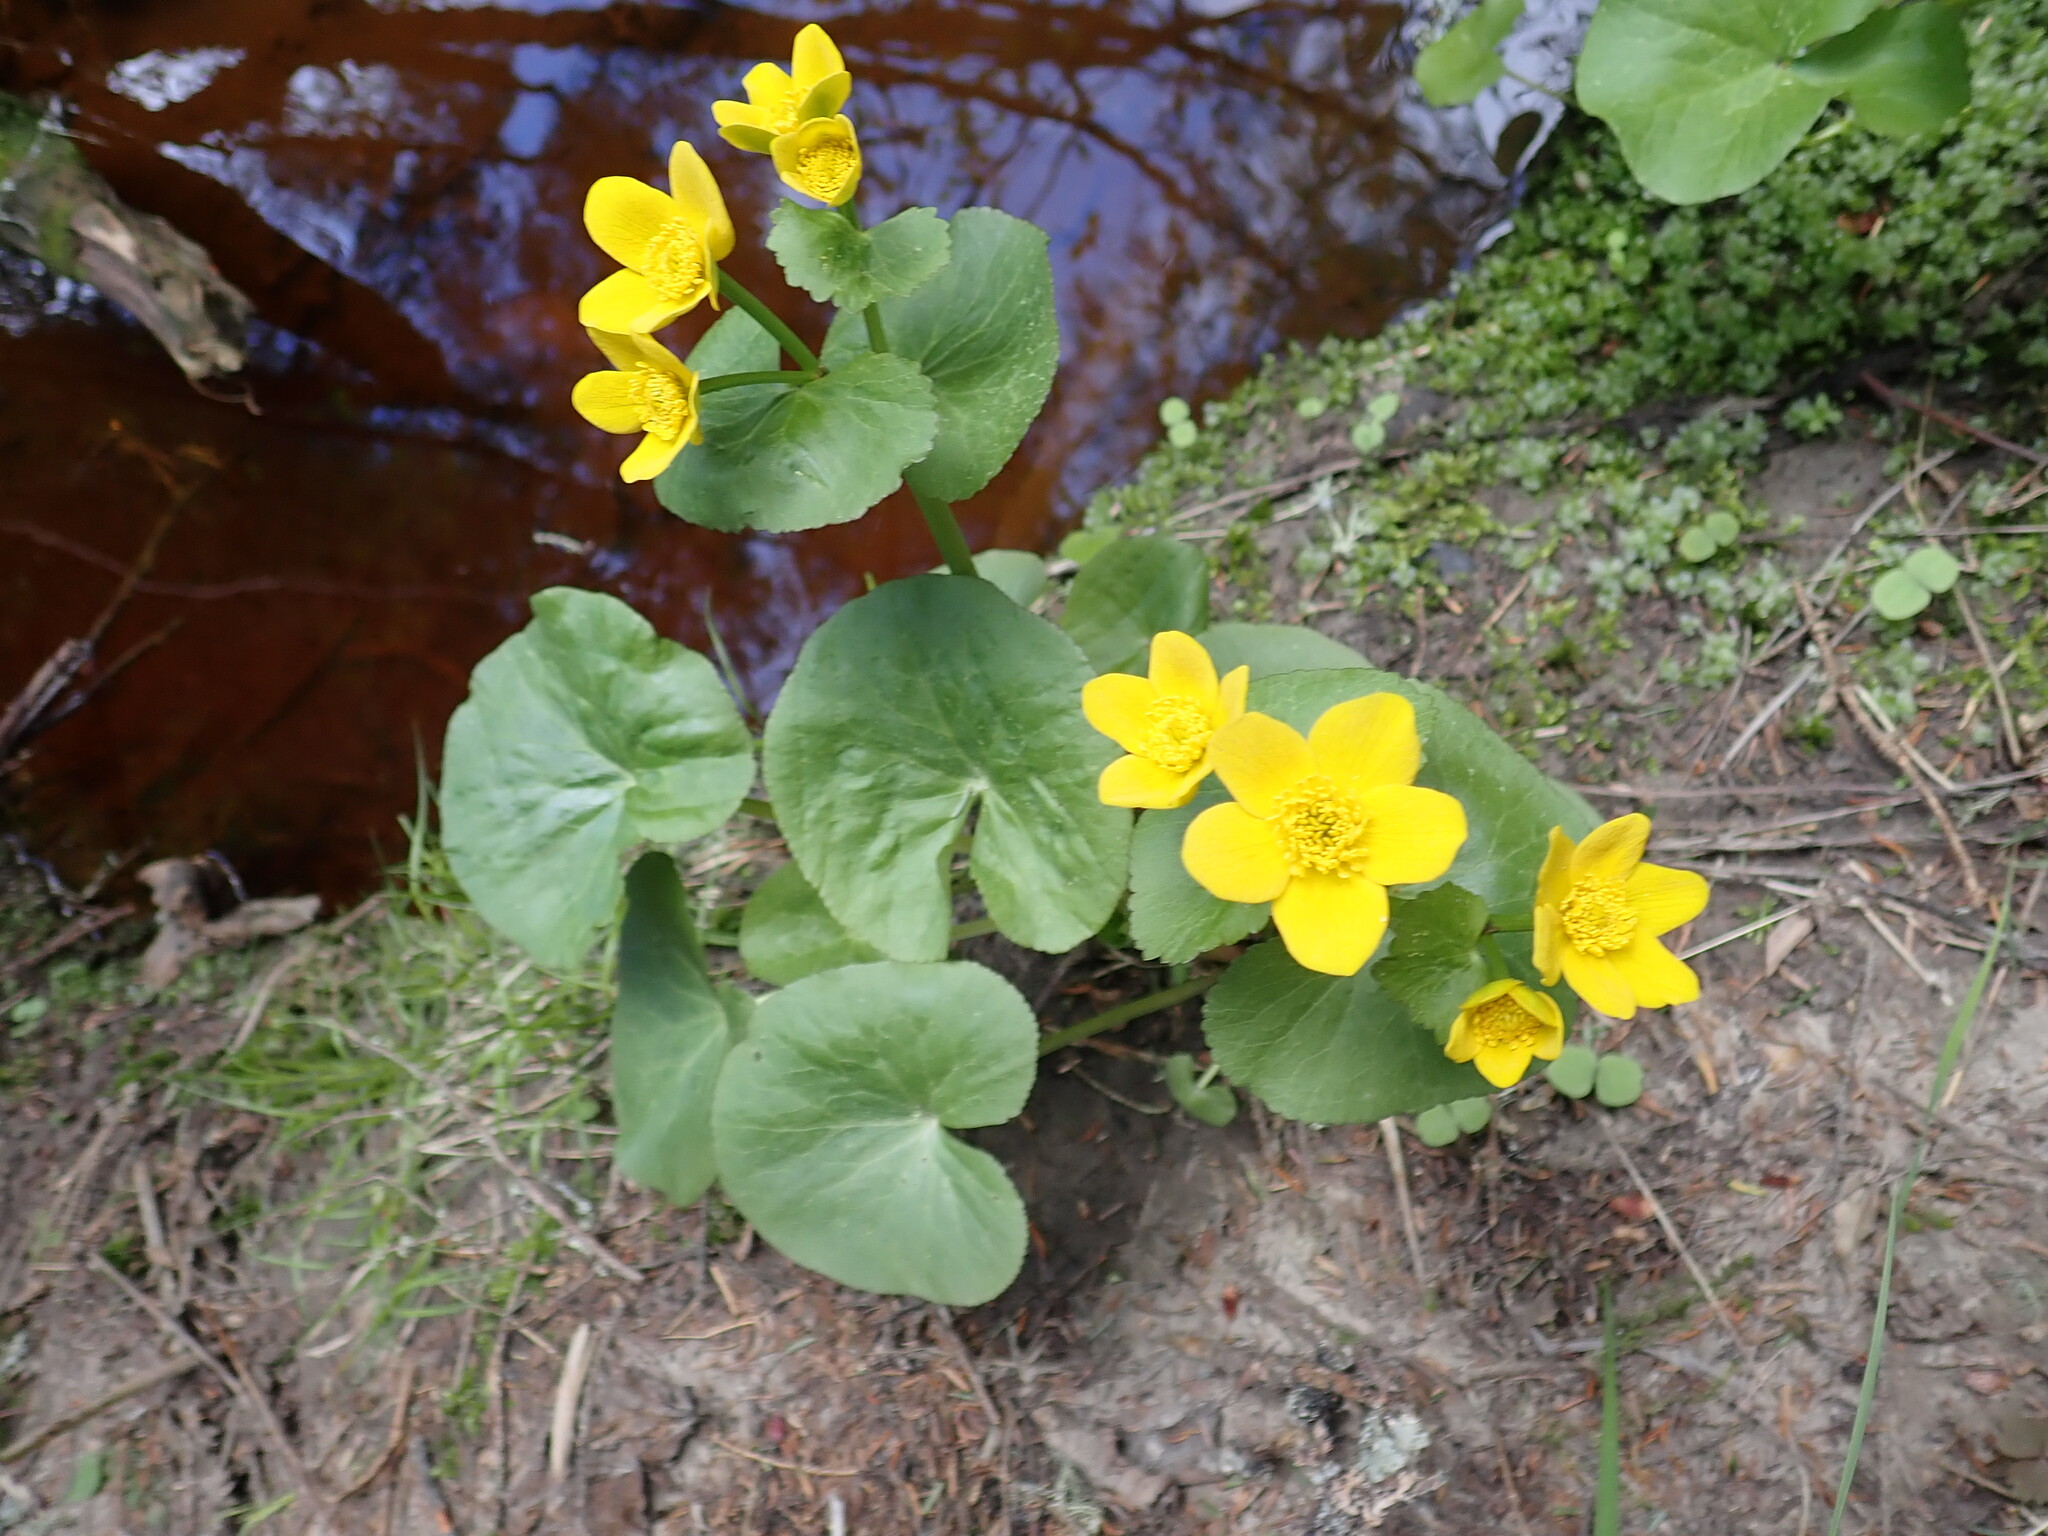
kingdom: Plantae
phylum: Tracheophyta
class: Magnoliopsida
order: Ranunculales
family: Ranunculaceae
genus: Caltha
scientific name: Caltha palustris
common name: Marsh marigold
